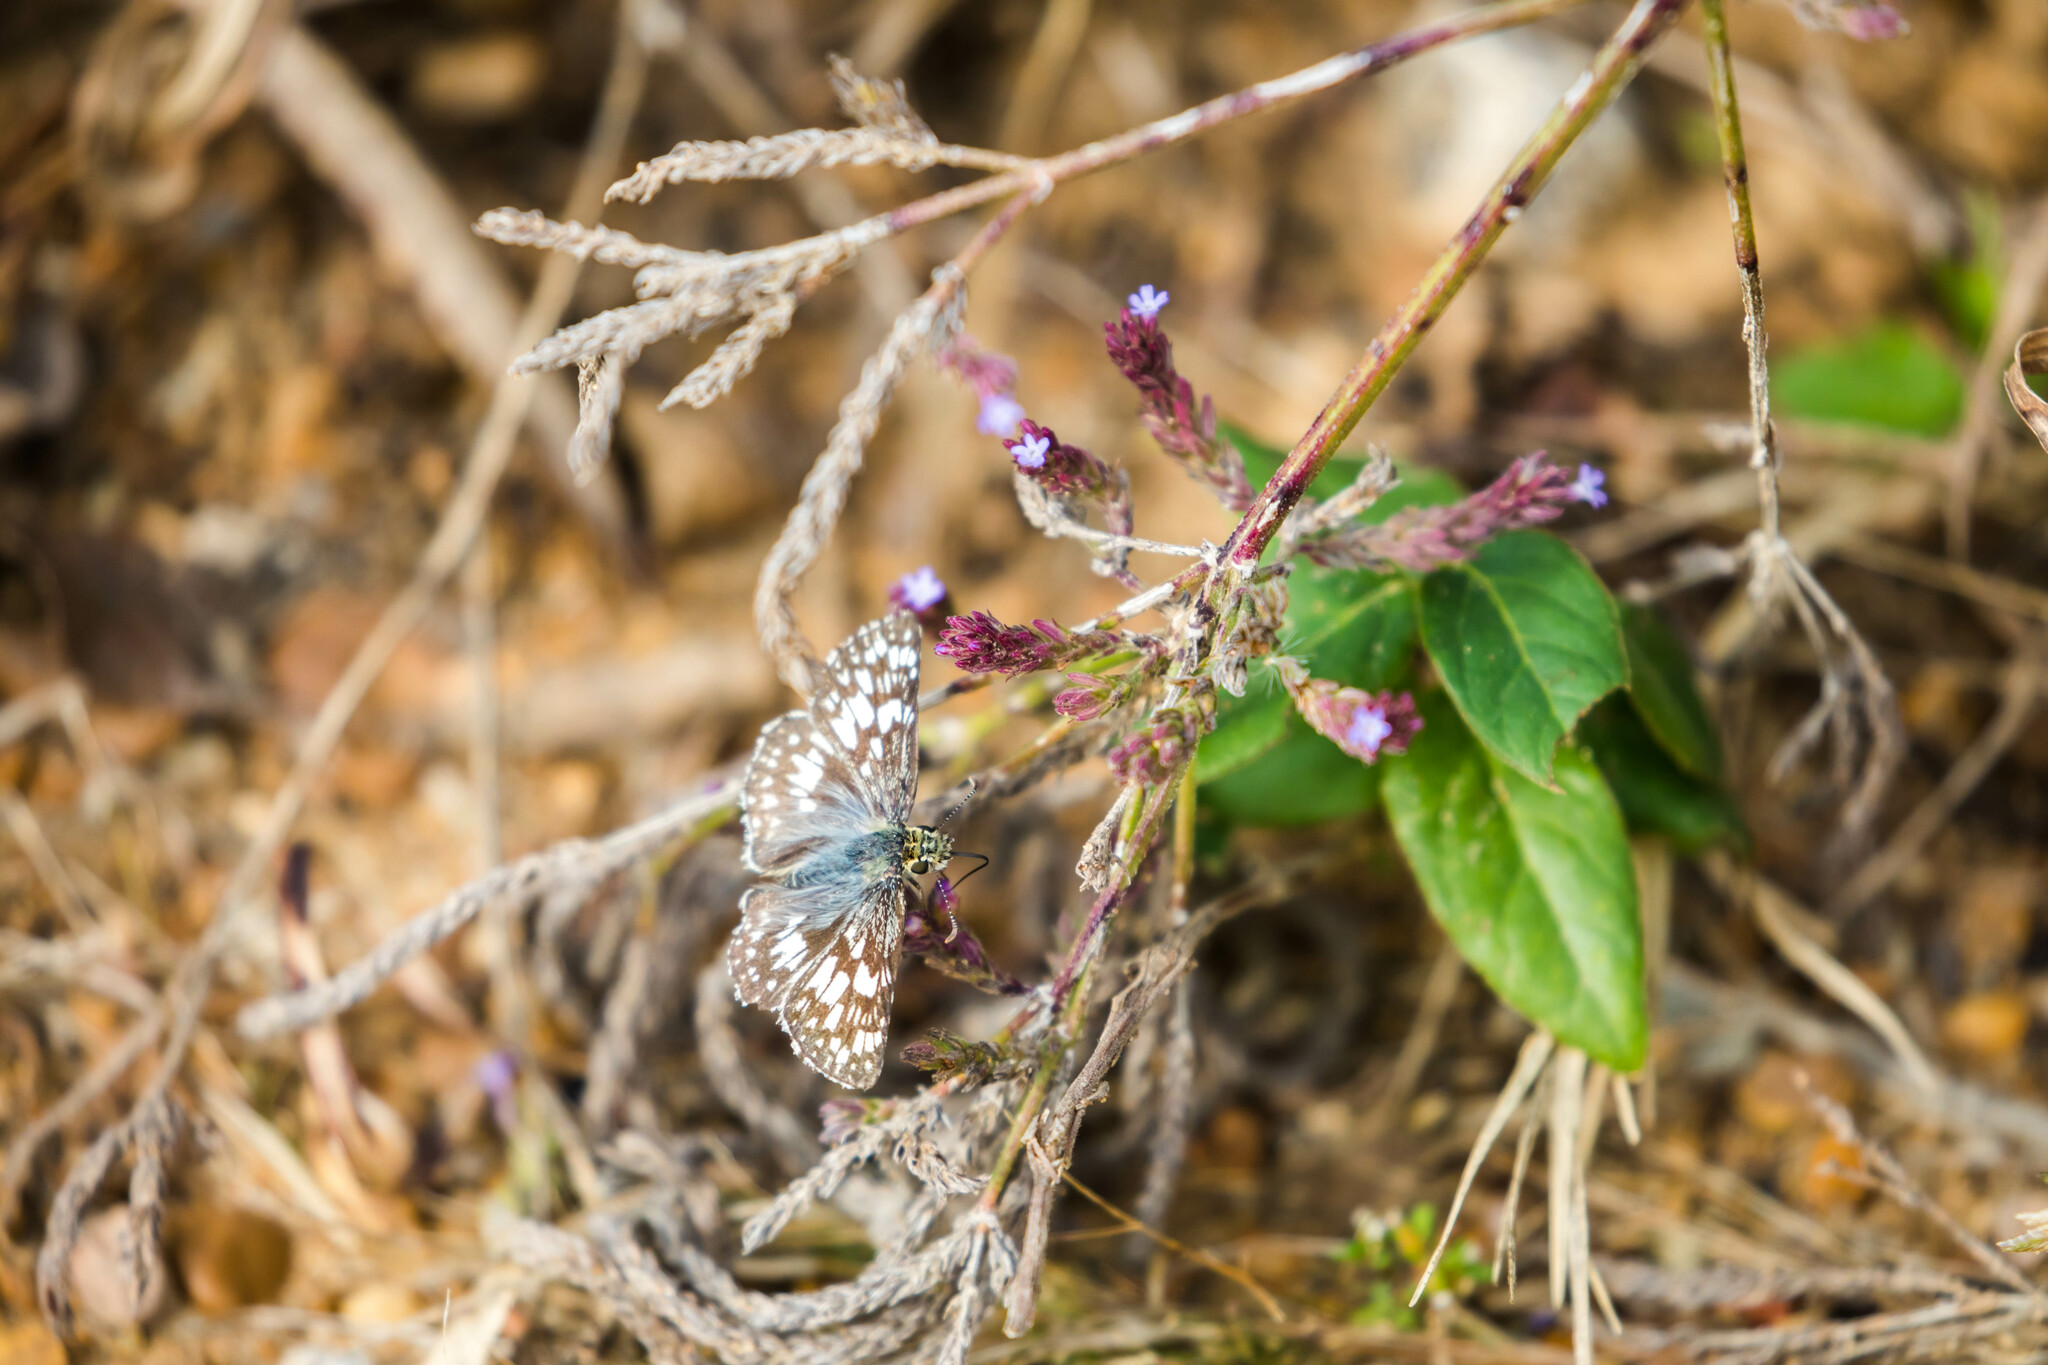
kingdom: Animalia
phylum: Arthropoda
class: Insecta
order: Lepidoptera
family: Hesperiidae
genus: Burnsius
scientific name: Burnsius communis
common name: Common checkered-skipper
